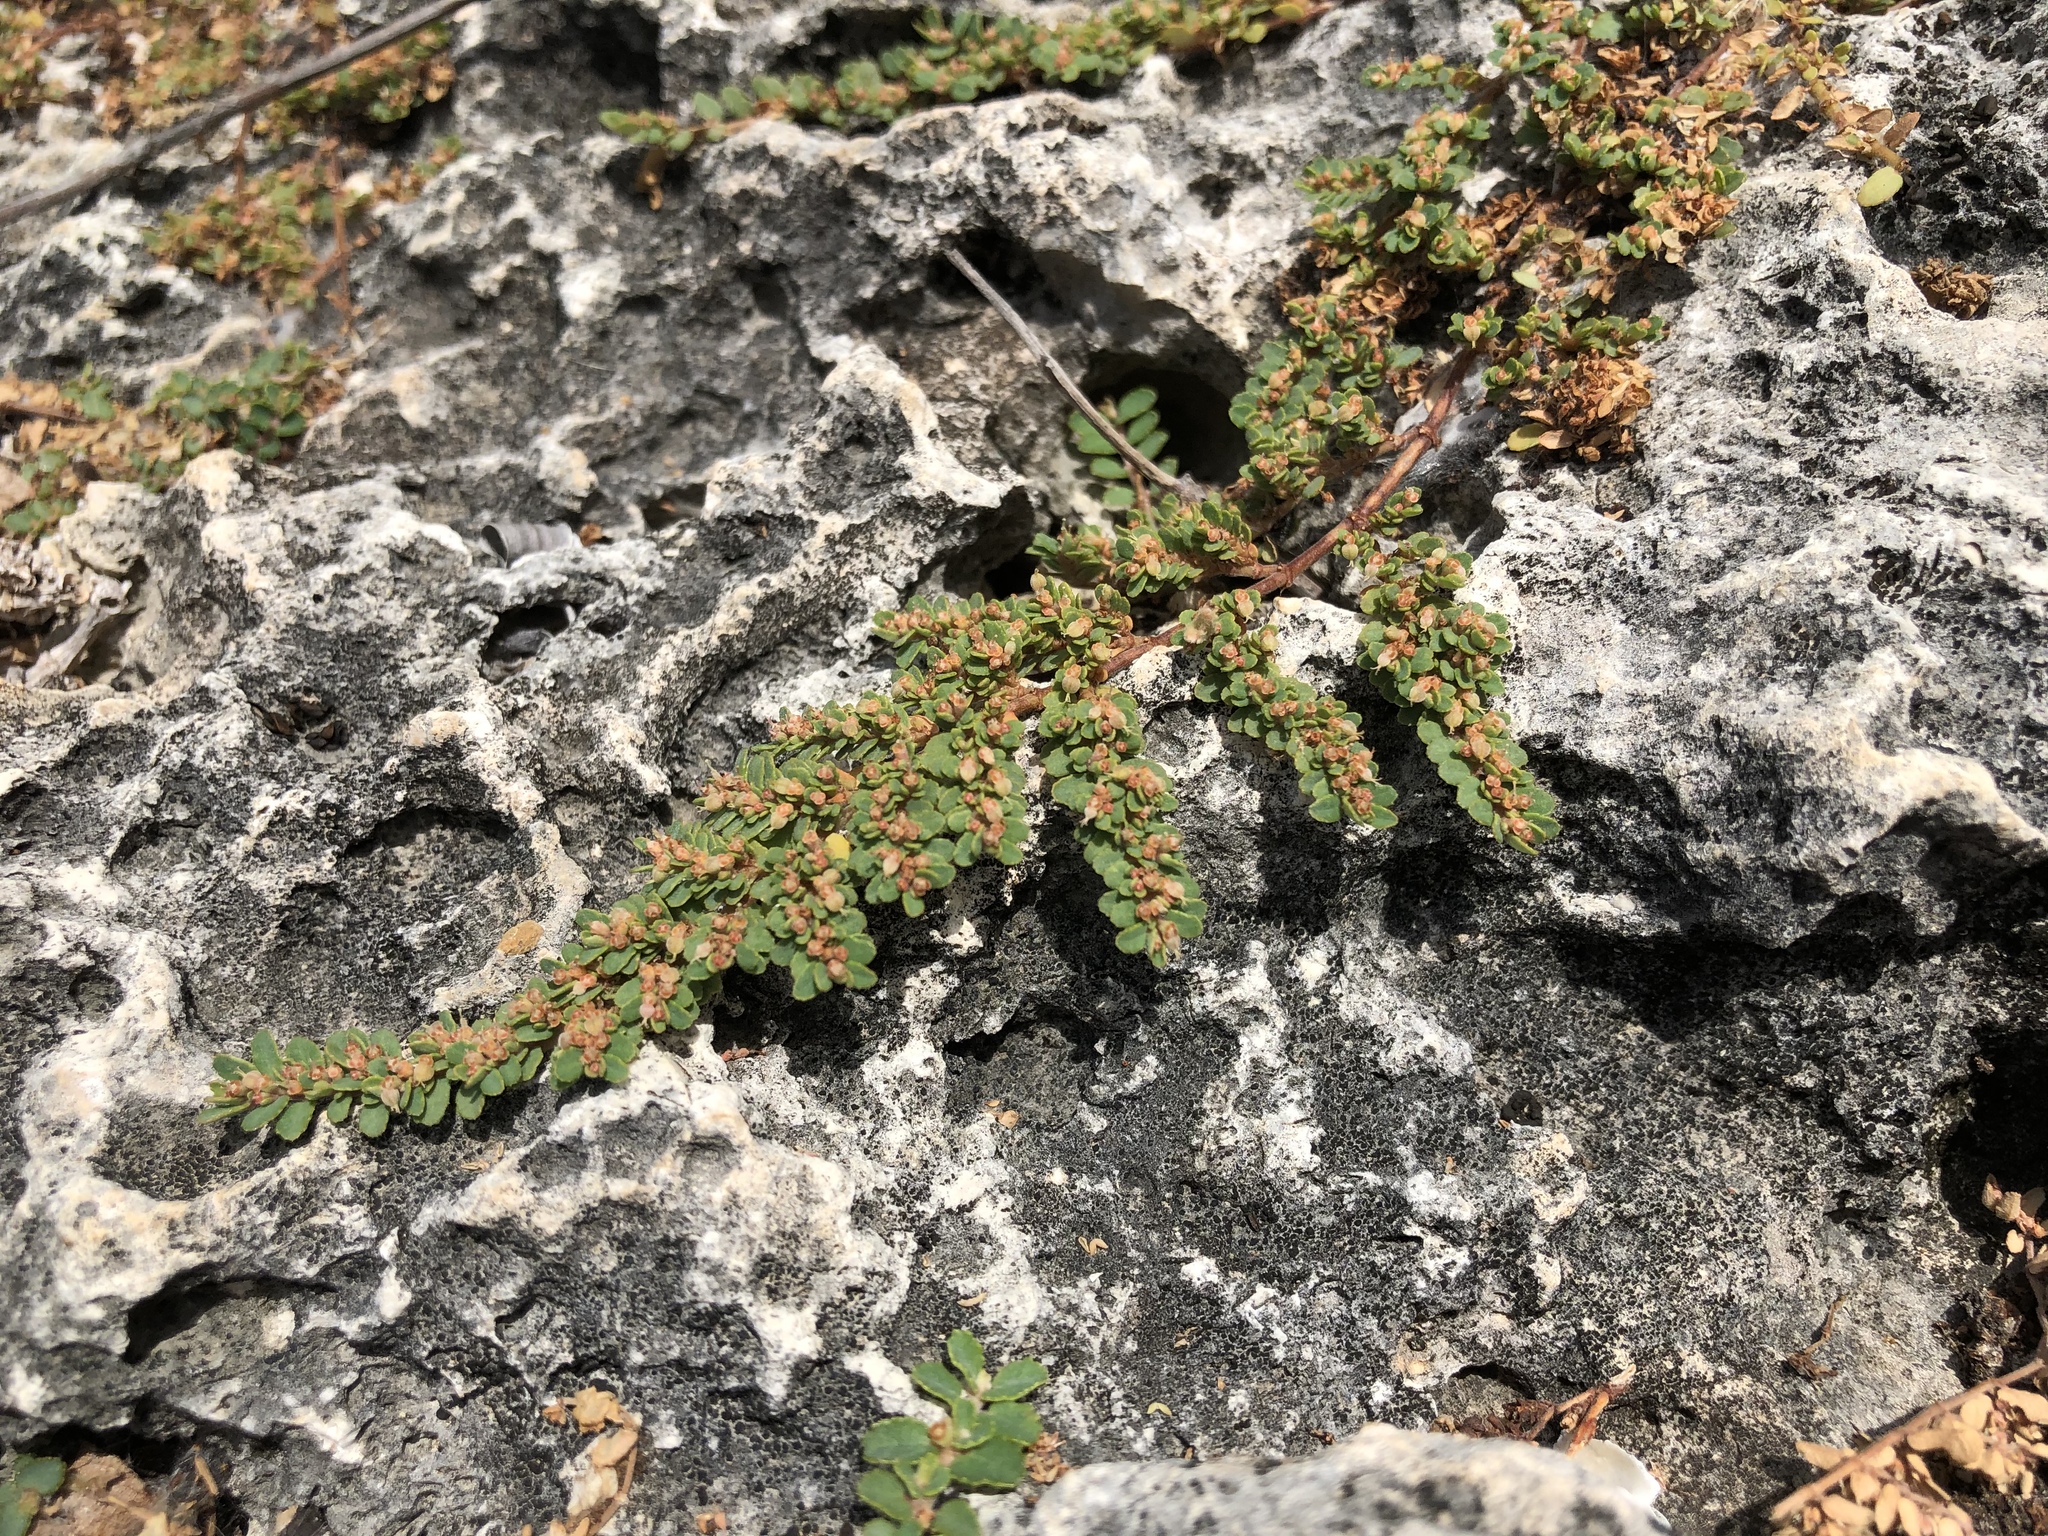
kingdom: Plantae
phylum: Tracheophyta
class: Magnoliopsida
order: Malpighiales
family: Euphorbiaceae
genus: Euphorbia
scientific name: Euphorbia pergamena
